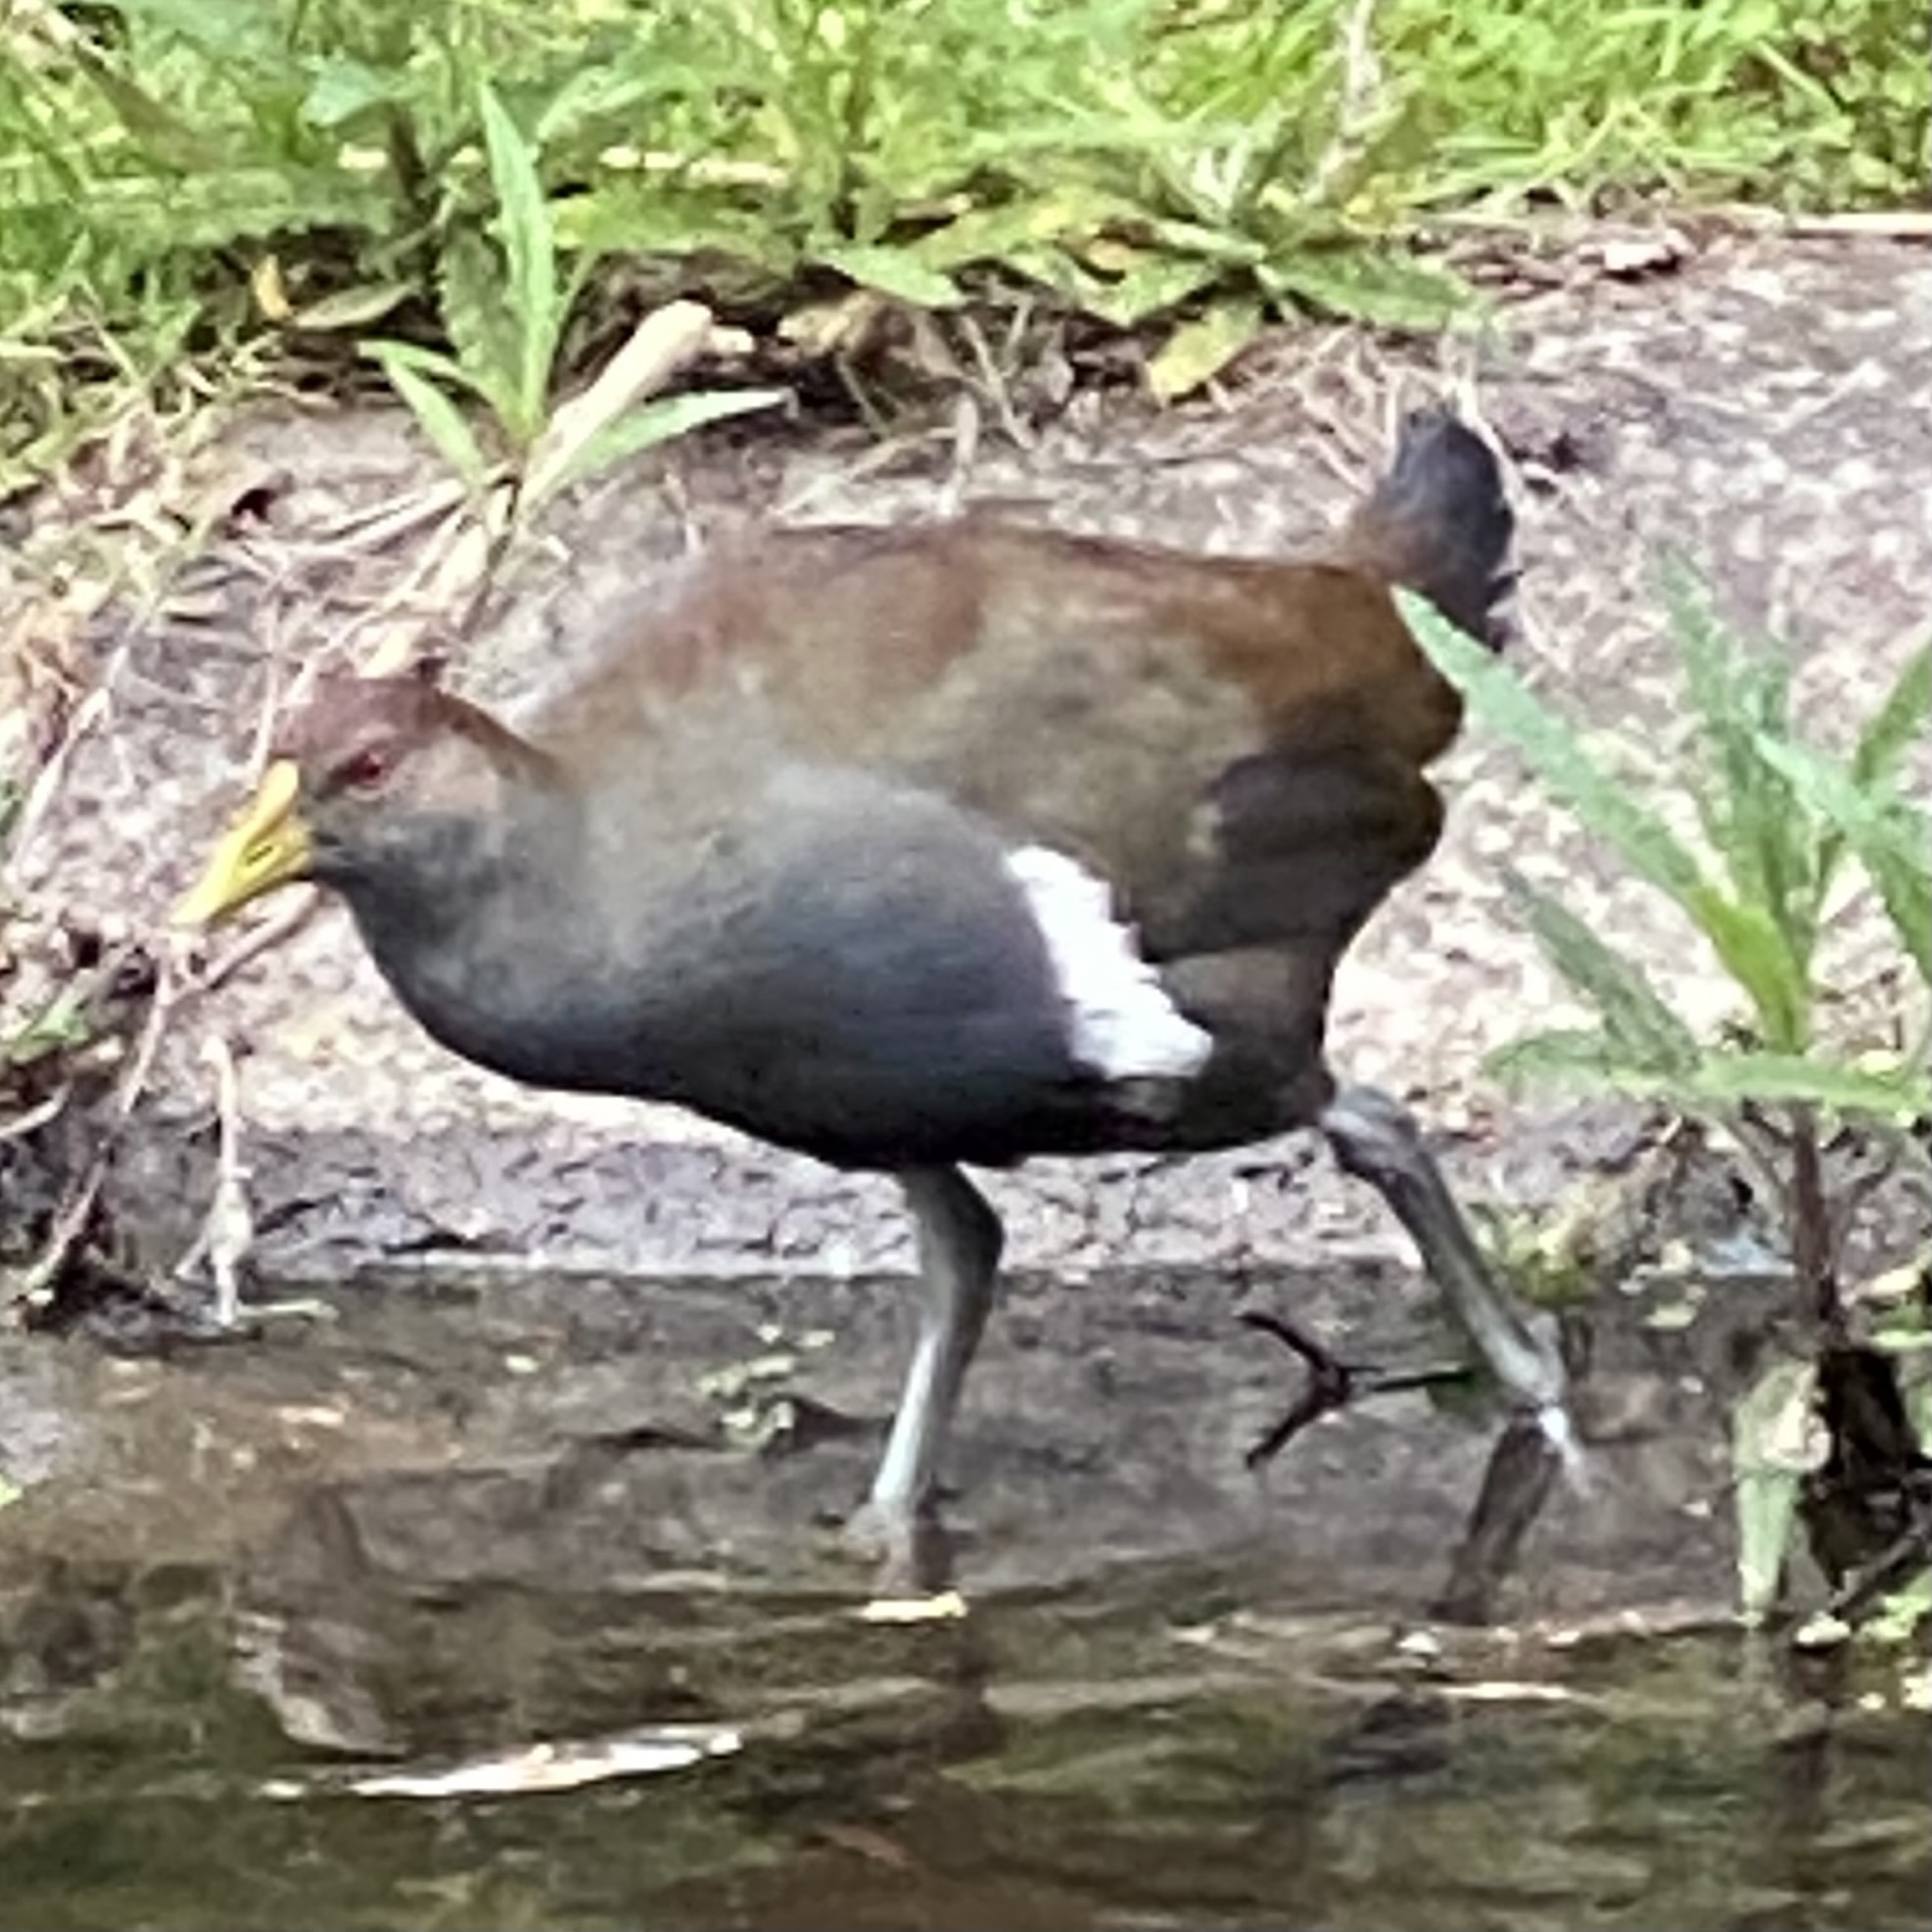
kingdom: Animalia
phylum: Chordata
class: Aves
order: Gruiformes
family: Rallidae
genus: Gallinula
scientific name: Gallinula mortierii
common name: Tasmanian nativehen
